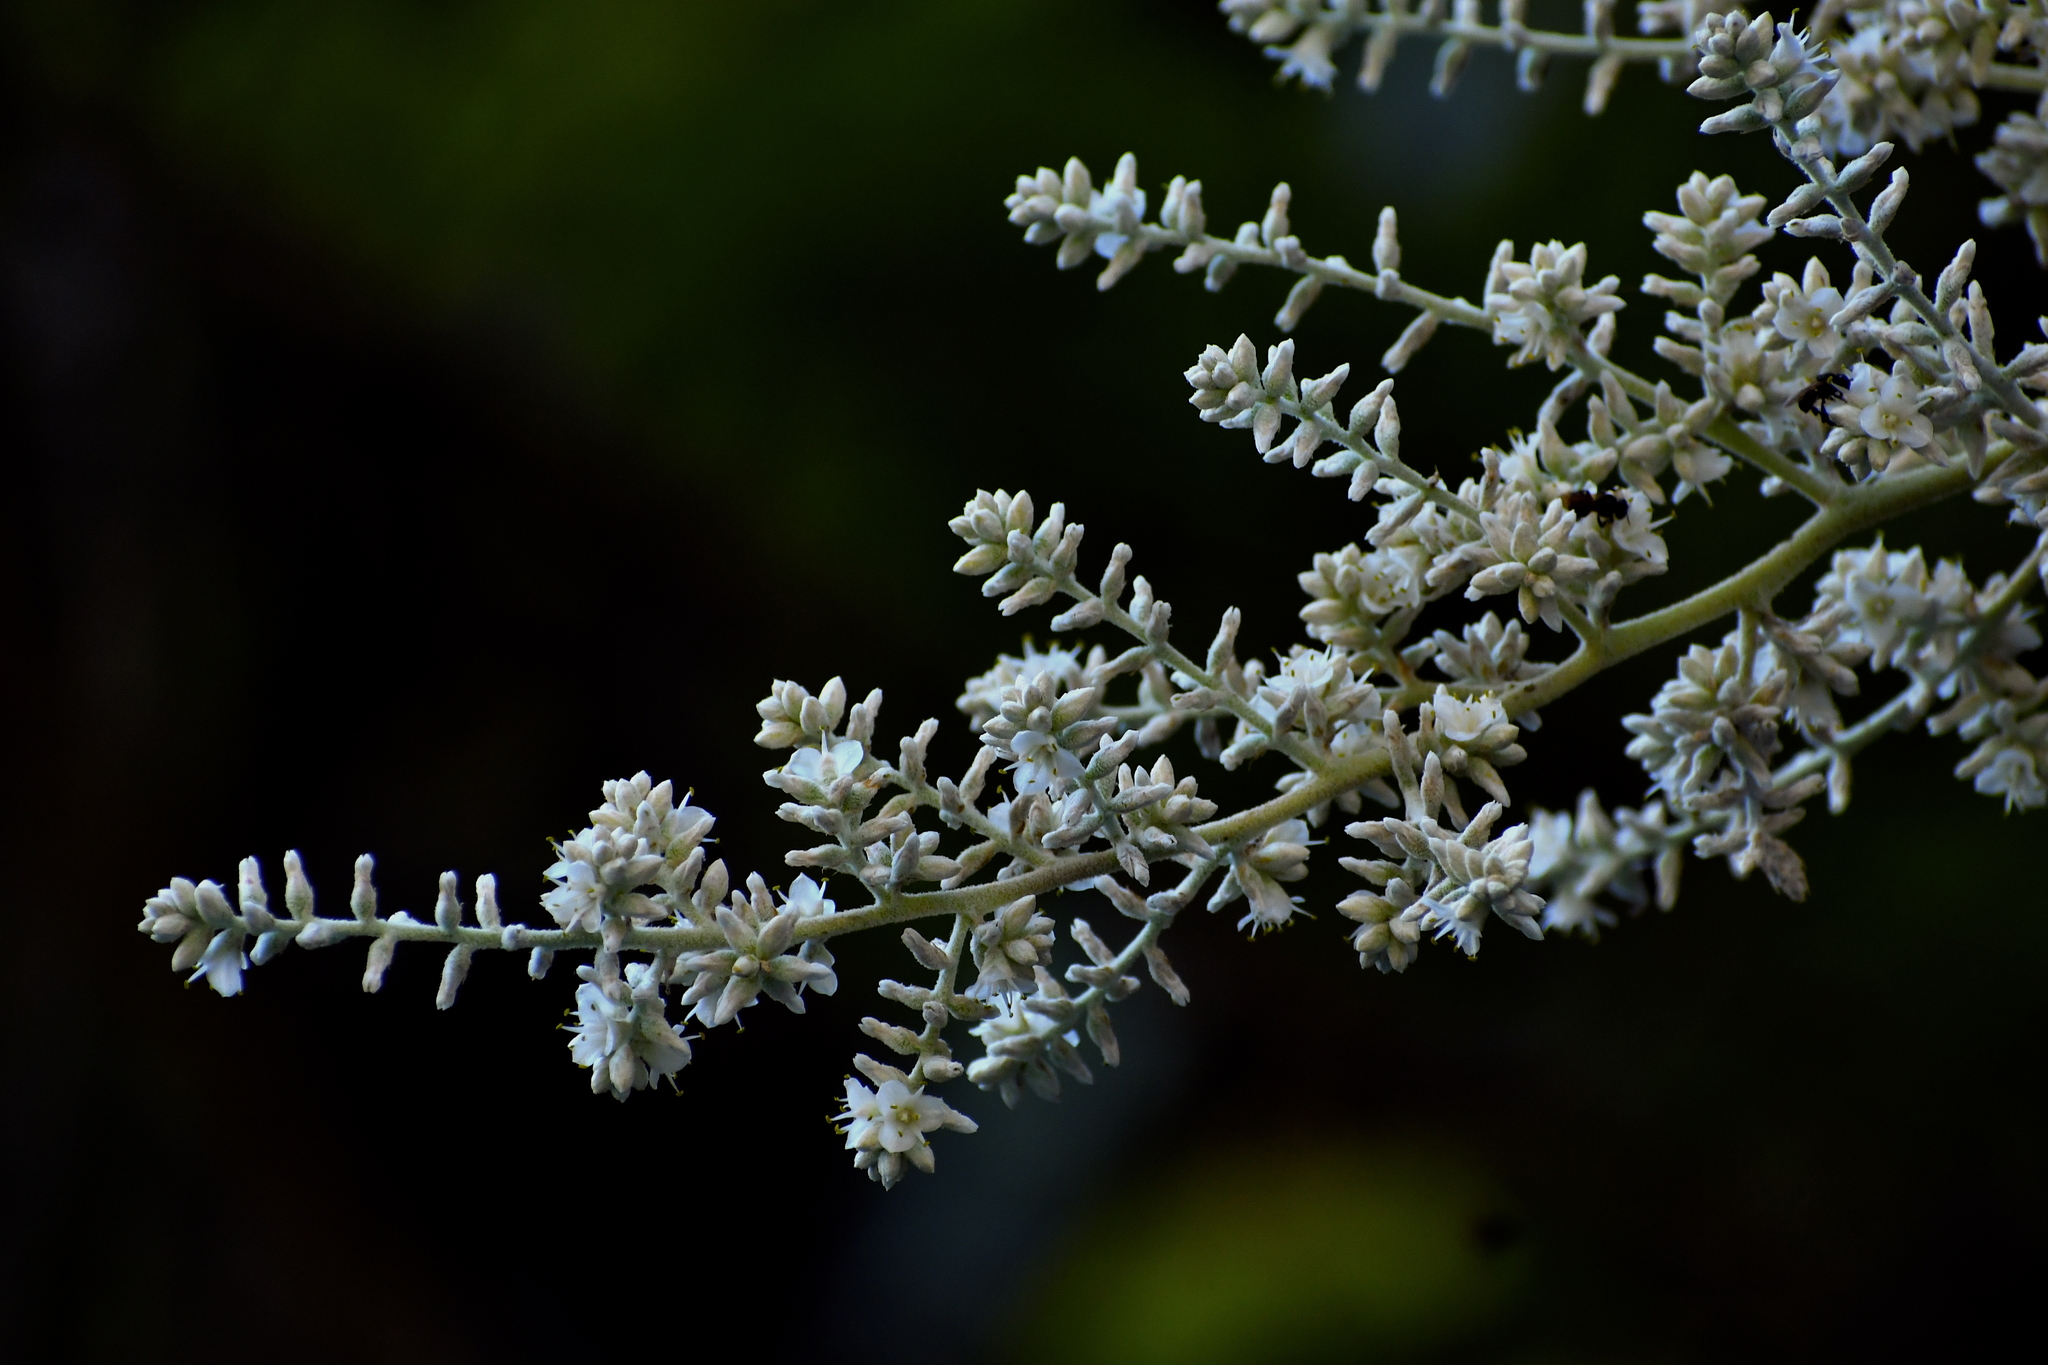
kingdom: Plantae
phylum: Tracheophyta
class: Liliopsida
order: Poales
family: Bromeliaceae
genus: Hechtia
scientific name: Hechtia glomerata
